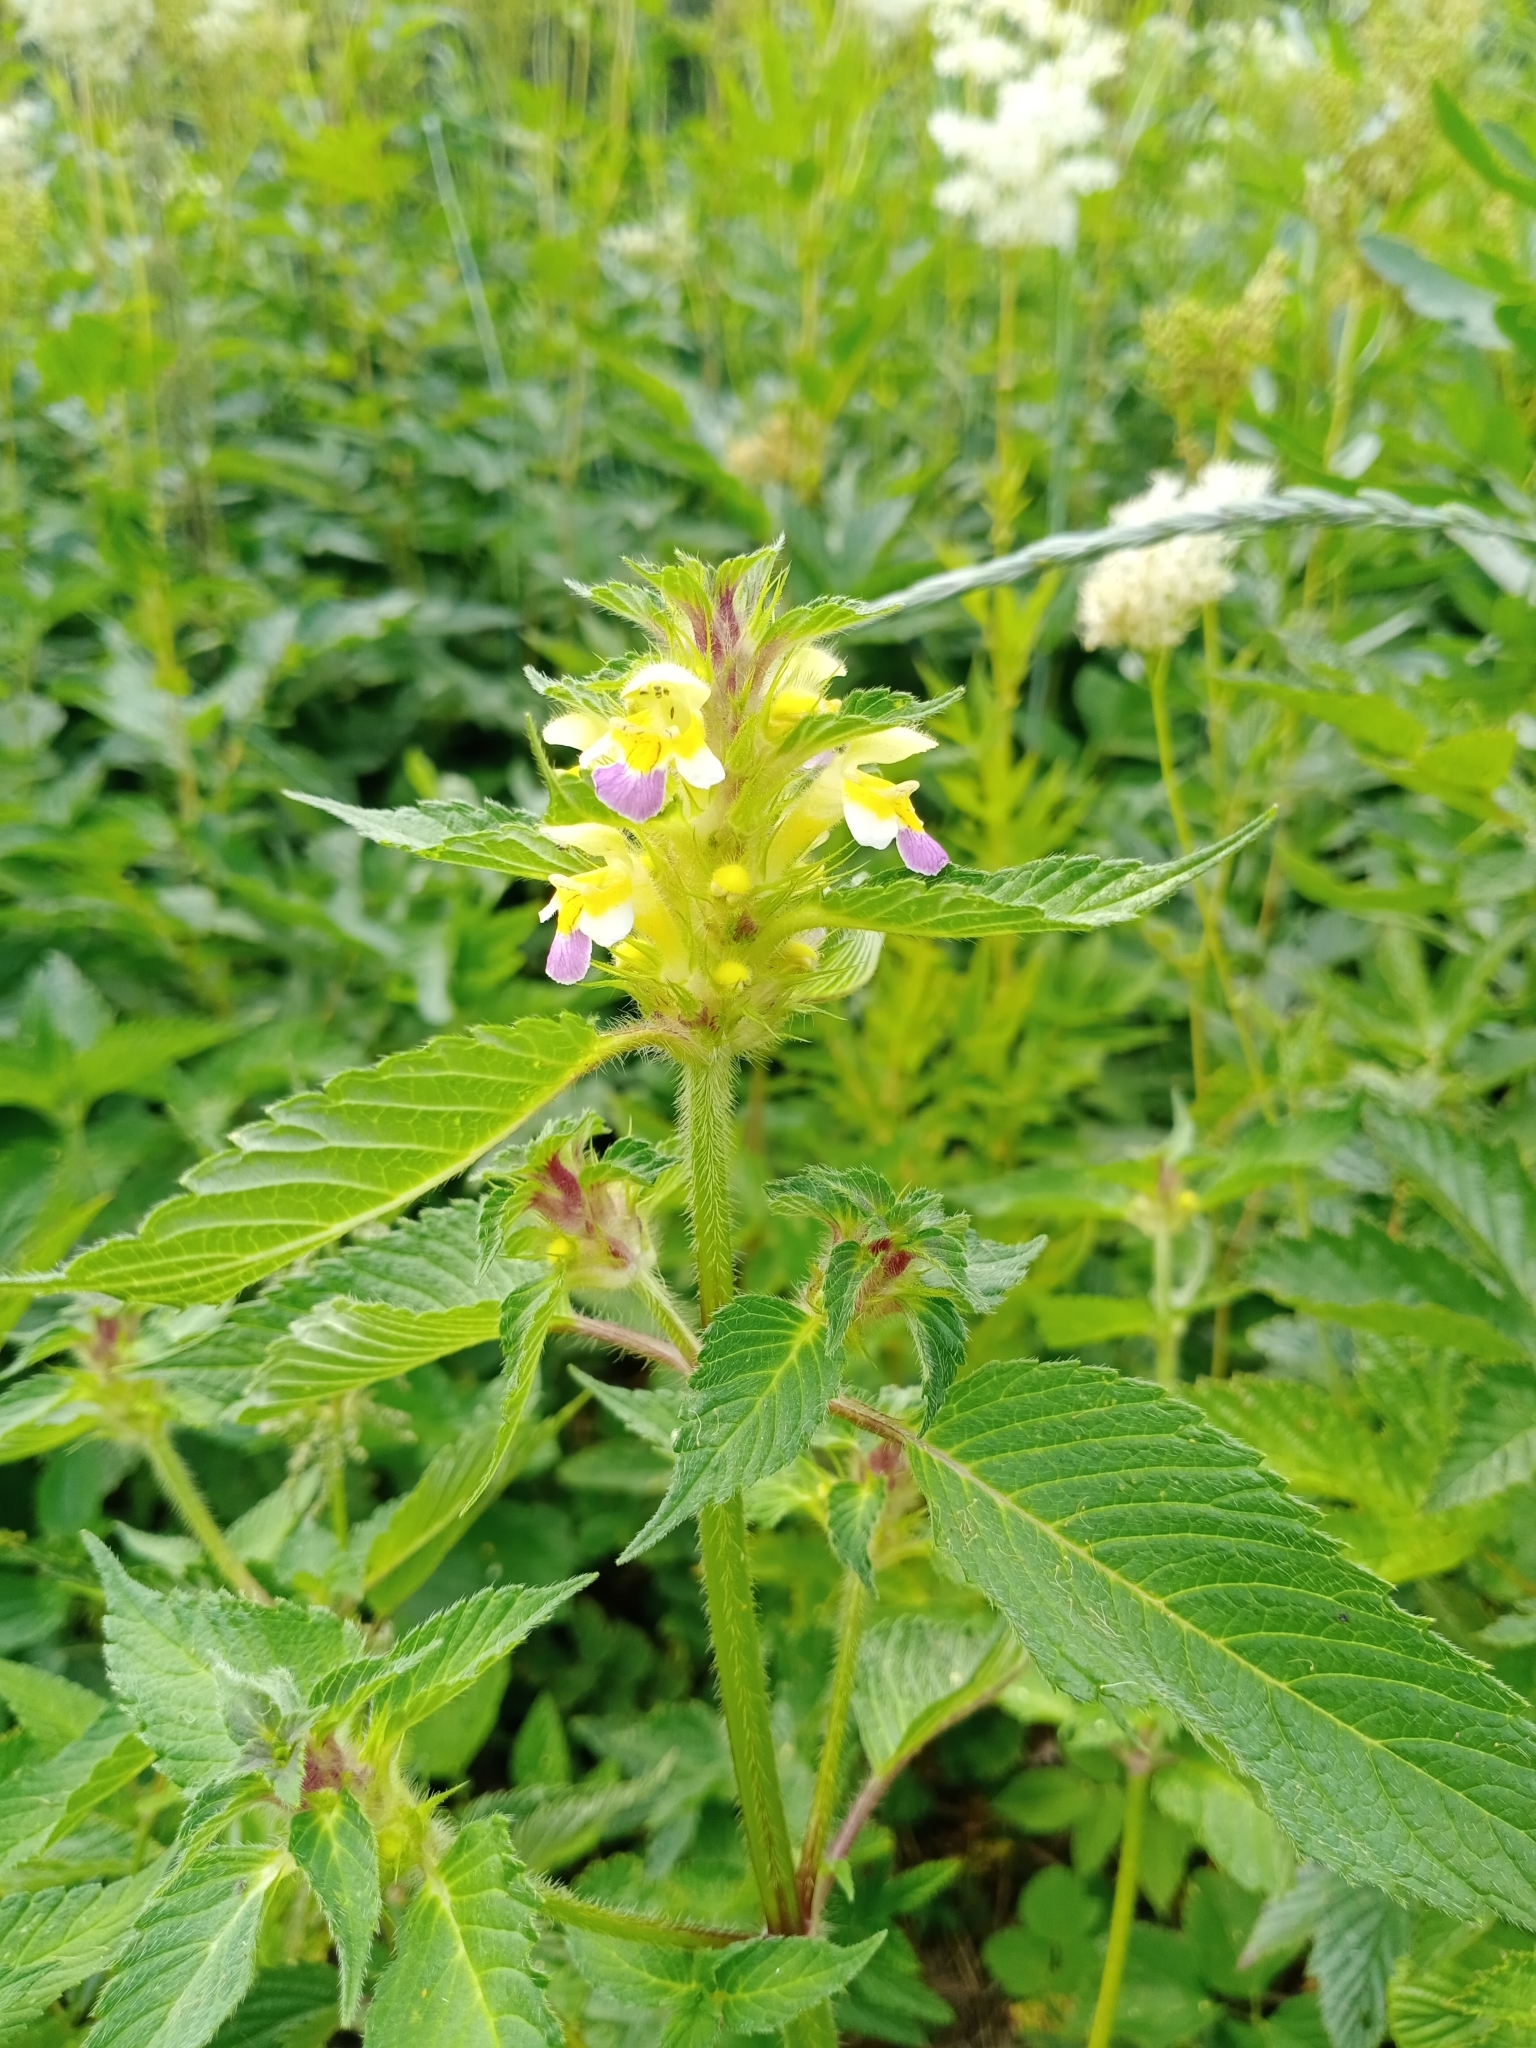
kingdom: Plantae
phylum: Tracheophyta
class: Magnoliopsida
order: Lamiales
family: Lamiaceae
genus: Galeopsis
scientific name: Galeopsis speciosa
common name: Large-flowered hemp-nettle
